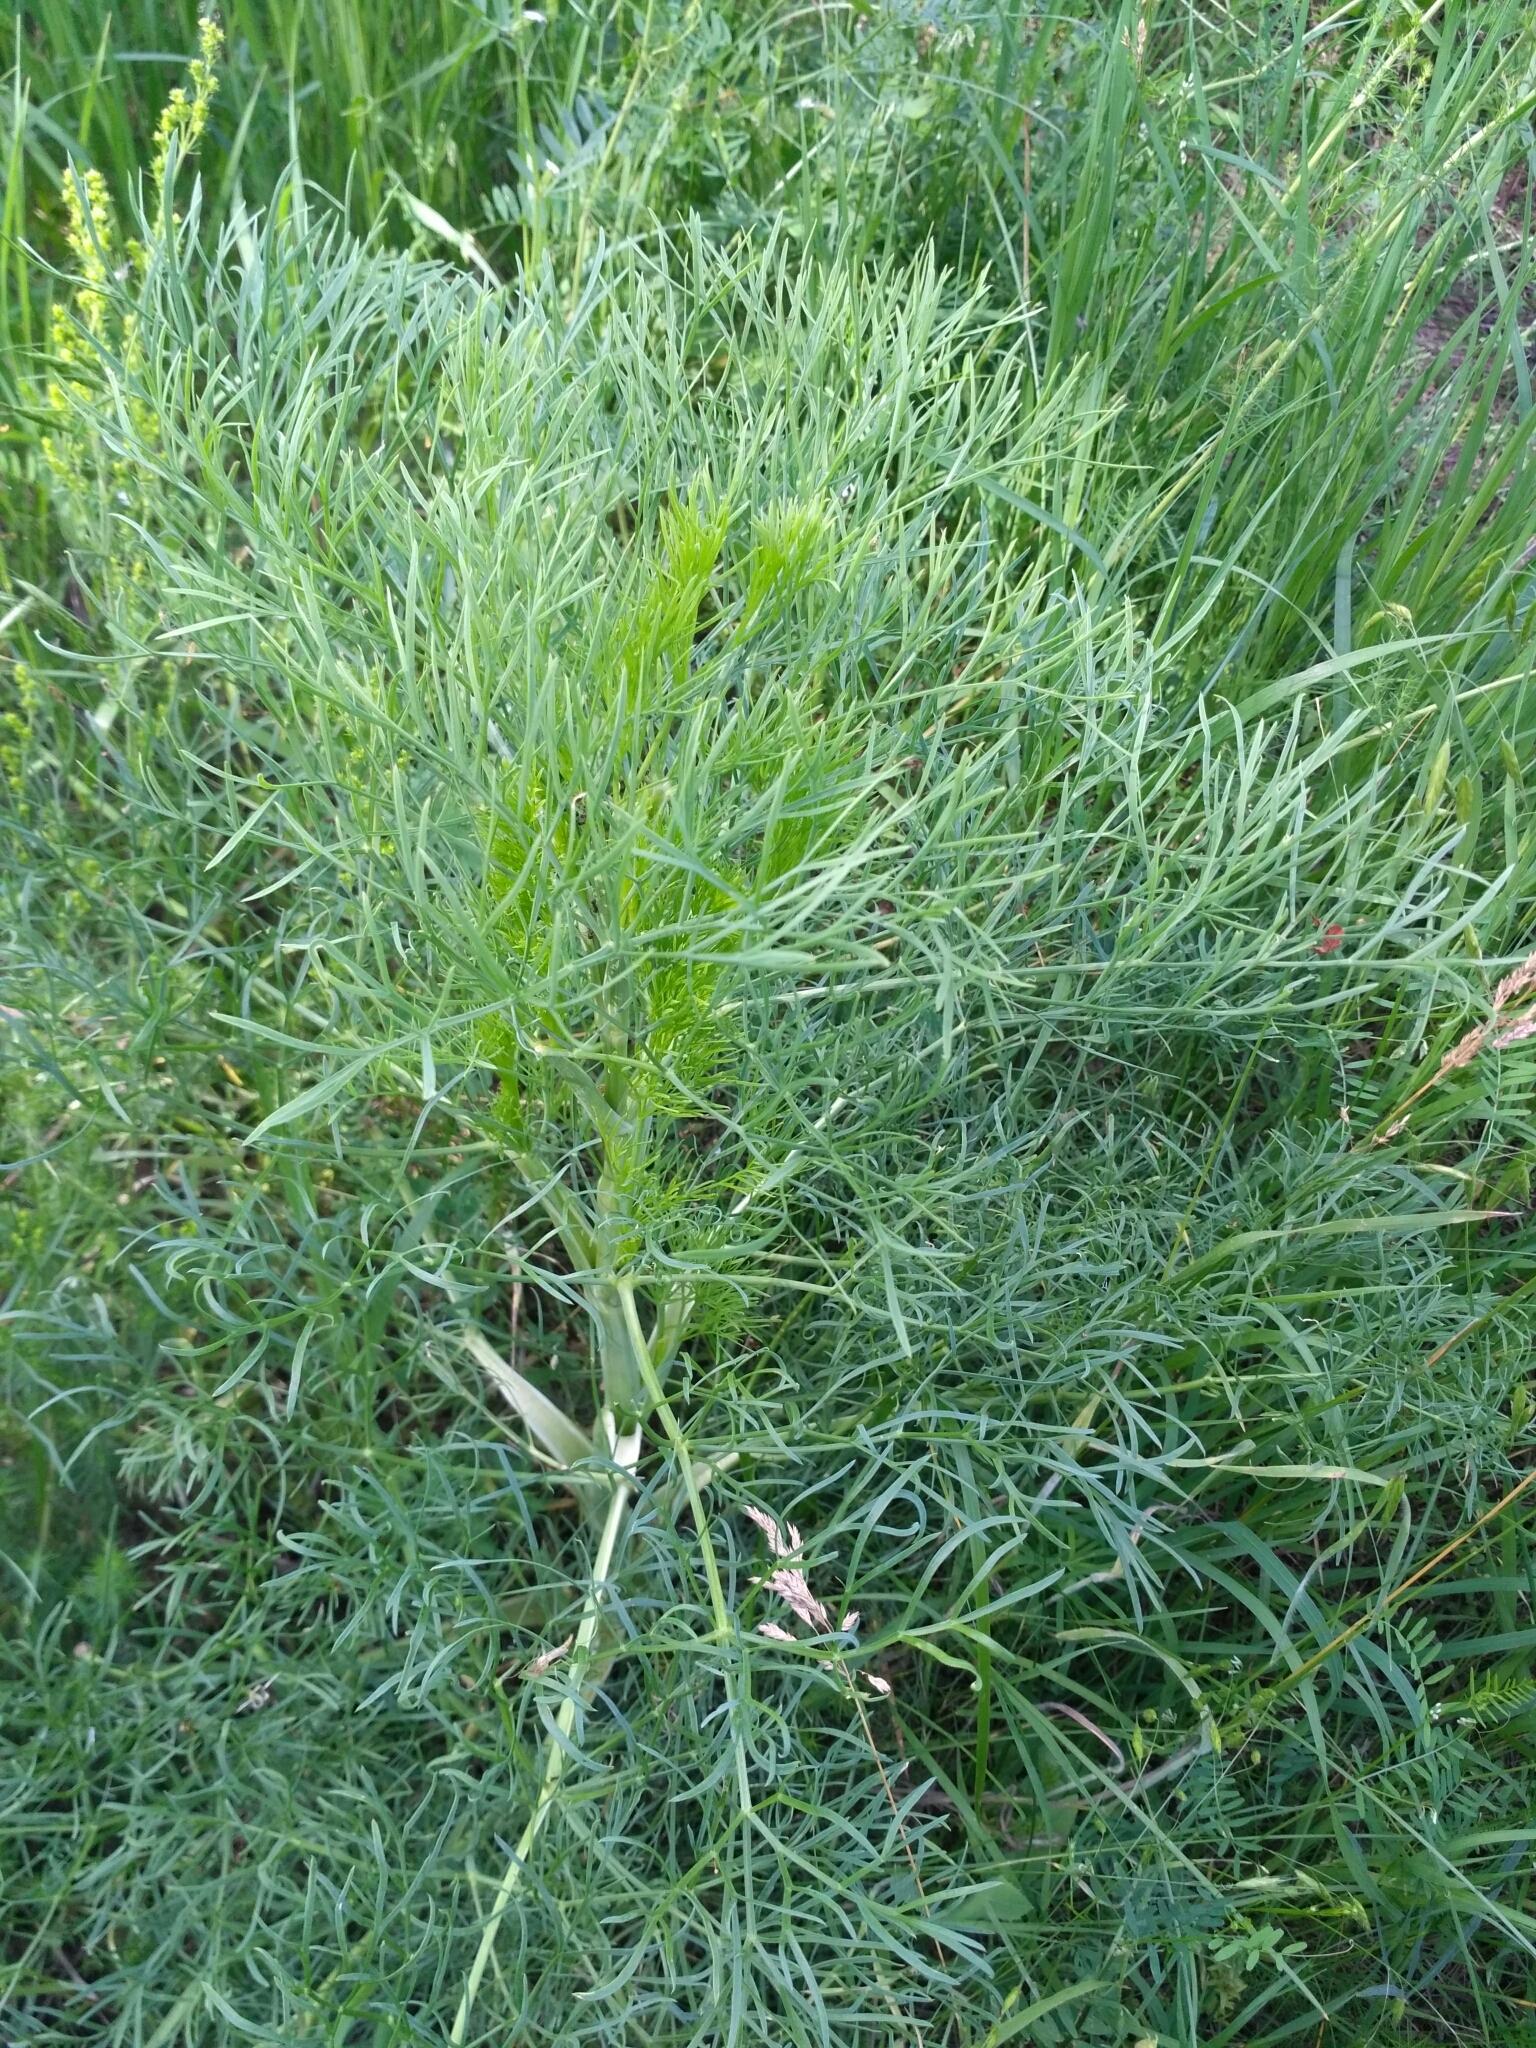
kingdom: Plantae
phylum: Tracheophyta
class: Magnoliopsida
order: Apiales
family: Apiaceae
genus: Seseli
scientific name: Seseli arenarium
